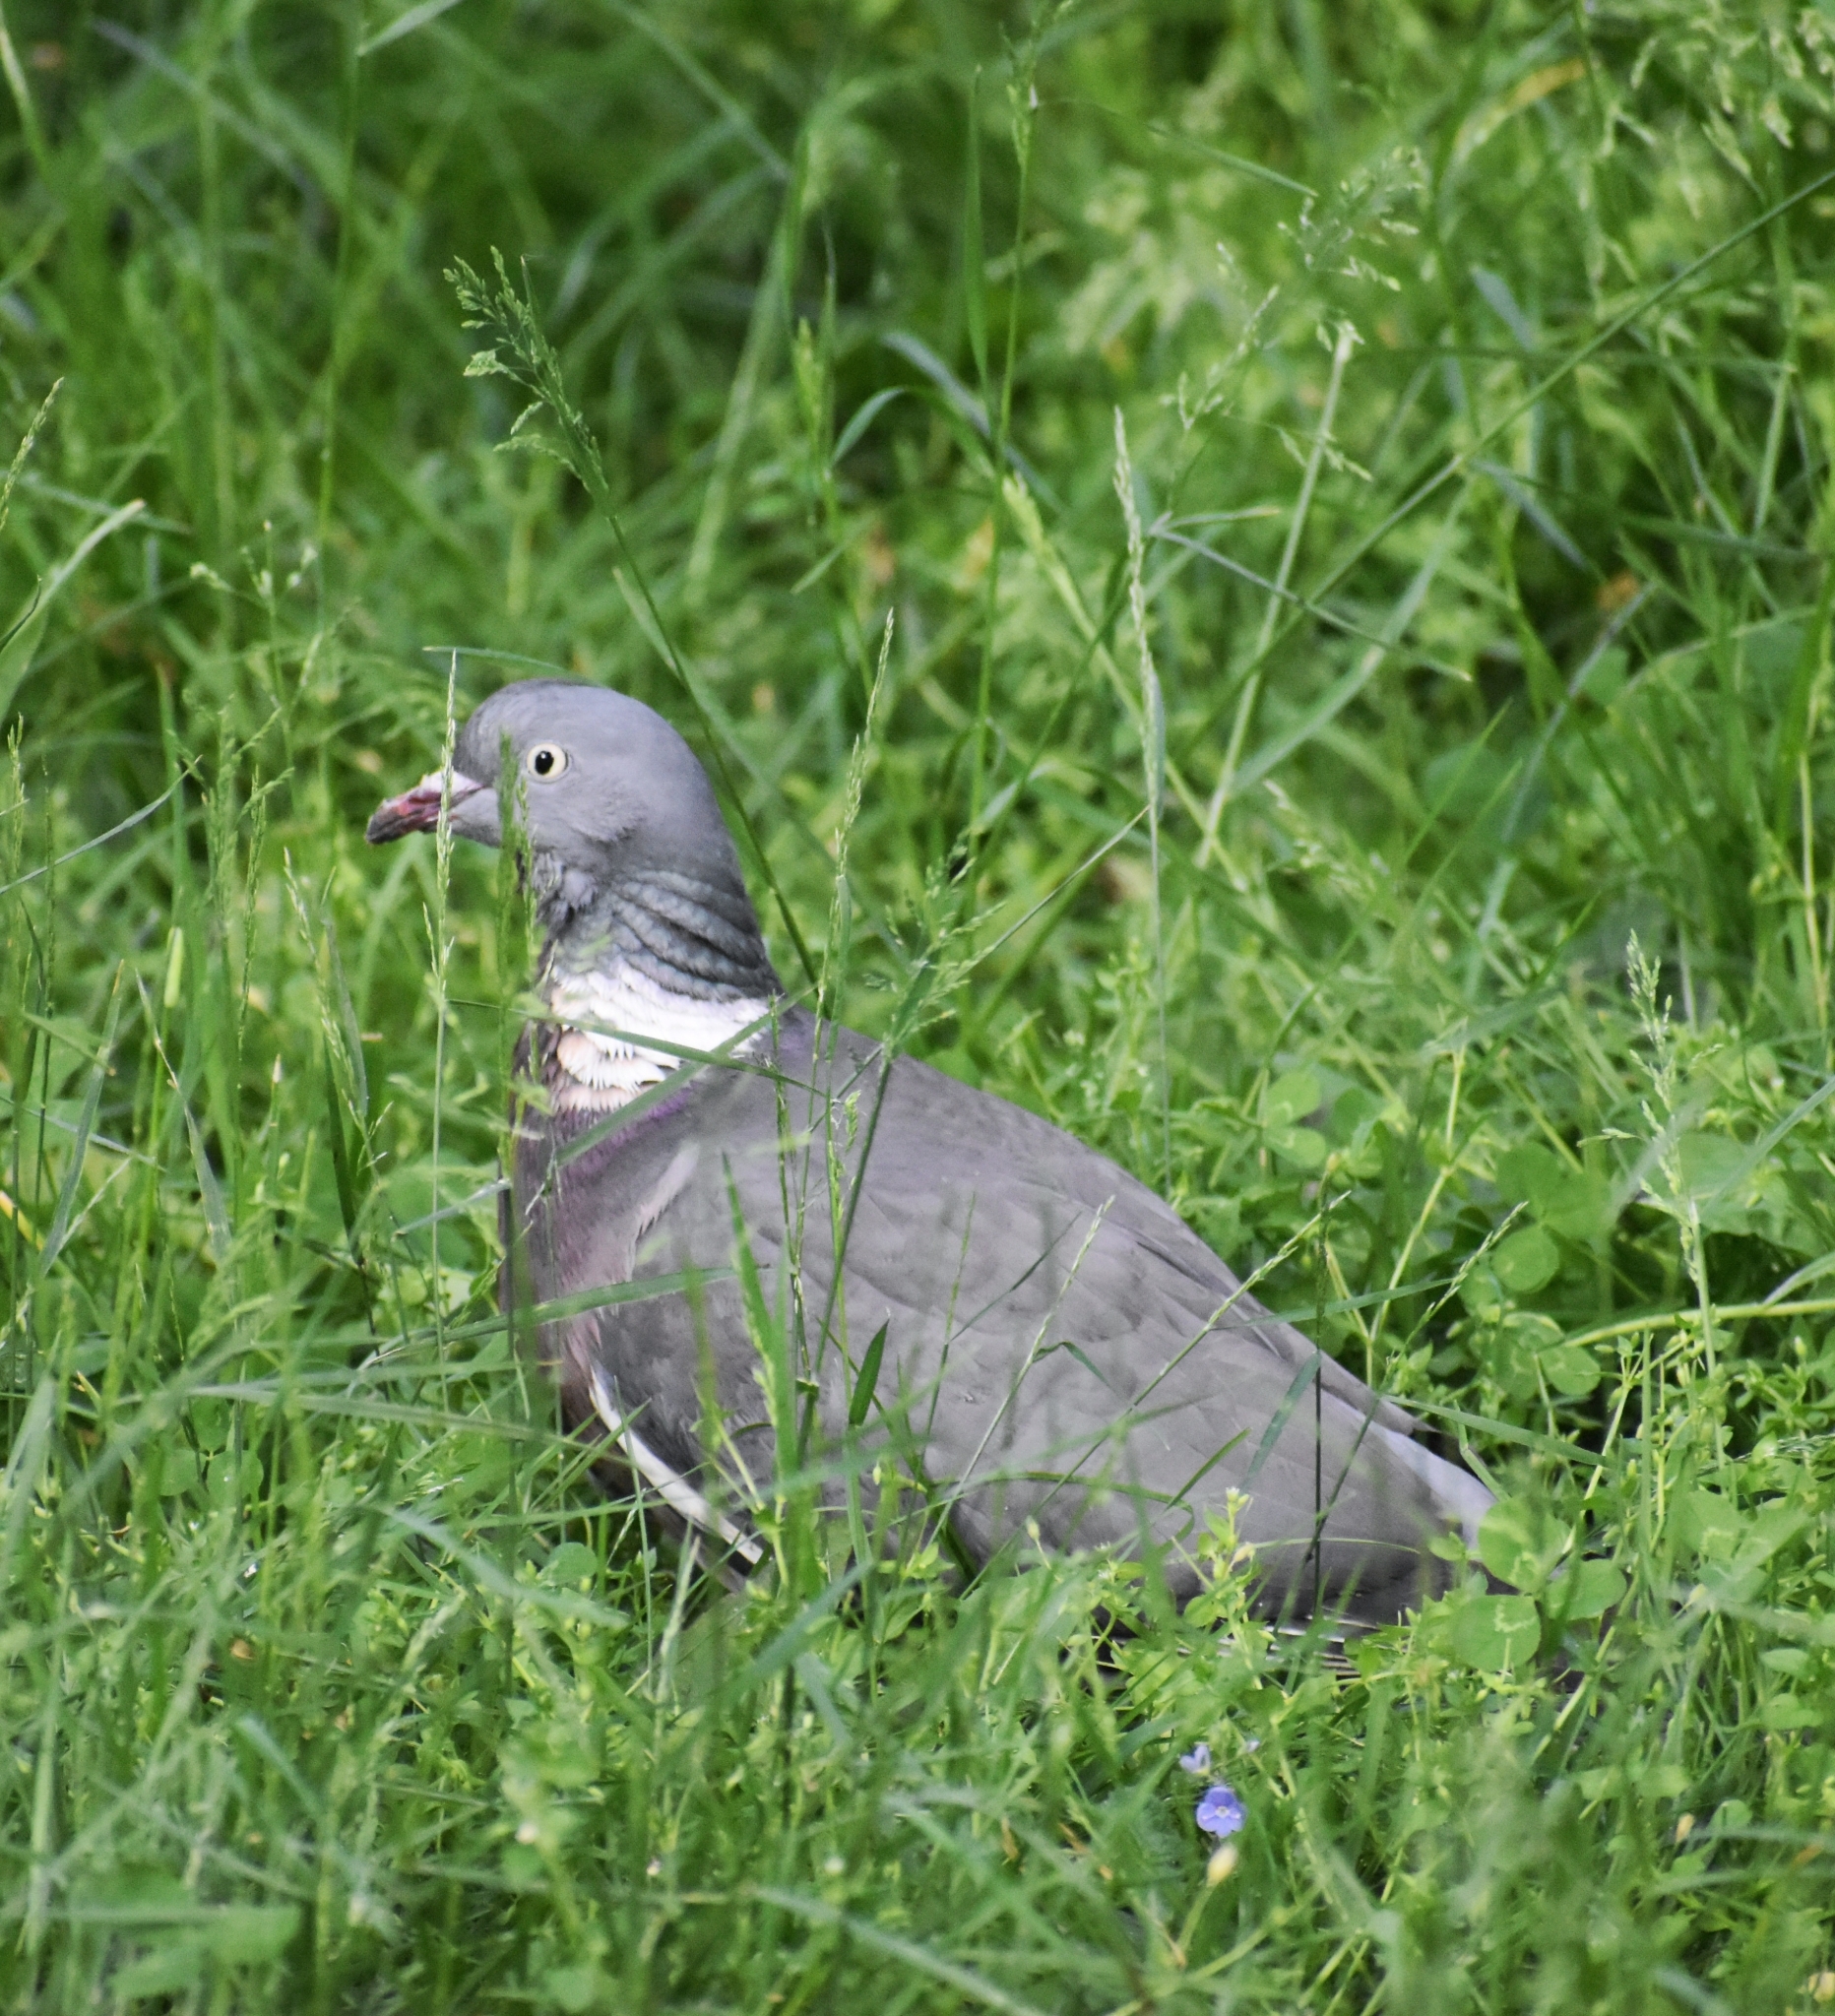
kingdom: Animalia
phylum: Chordata
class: Aves
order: Columbiformes
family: Columbidae
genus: Columba
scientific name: Columba palumbus
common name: Common wood pigeon
